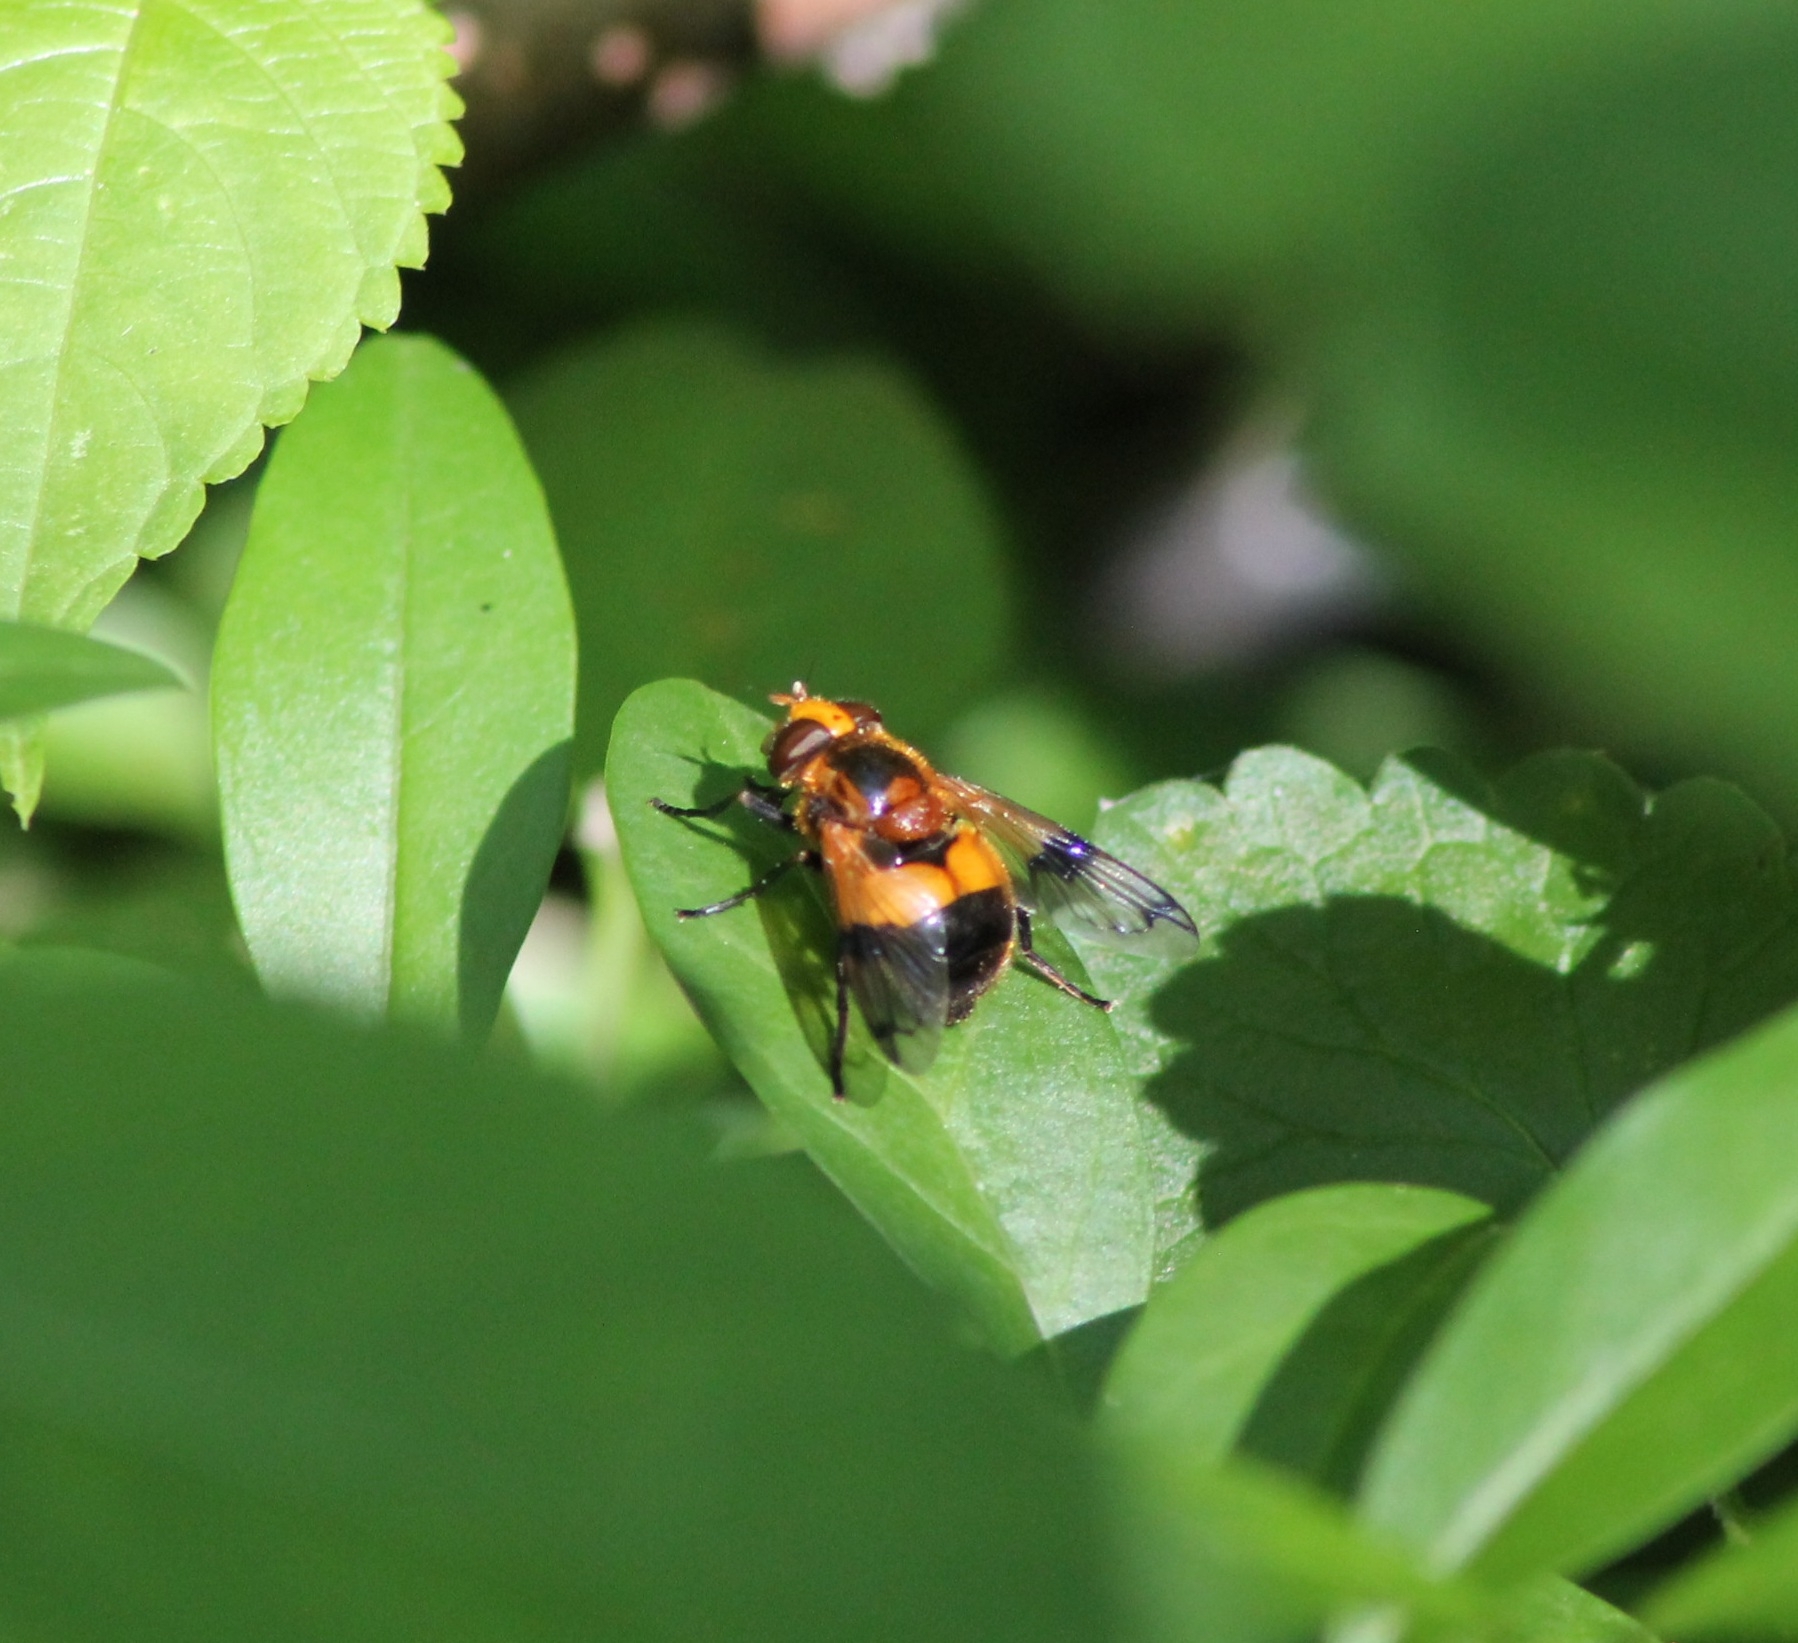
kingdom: Animalia
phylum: Arthropoda
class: Insecta
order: Diptera
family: Syrphidae
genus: Volucella
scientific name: Volucella inflata
